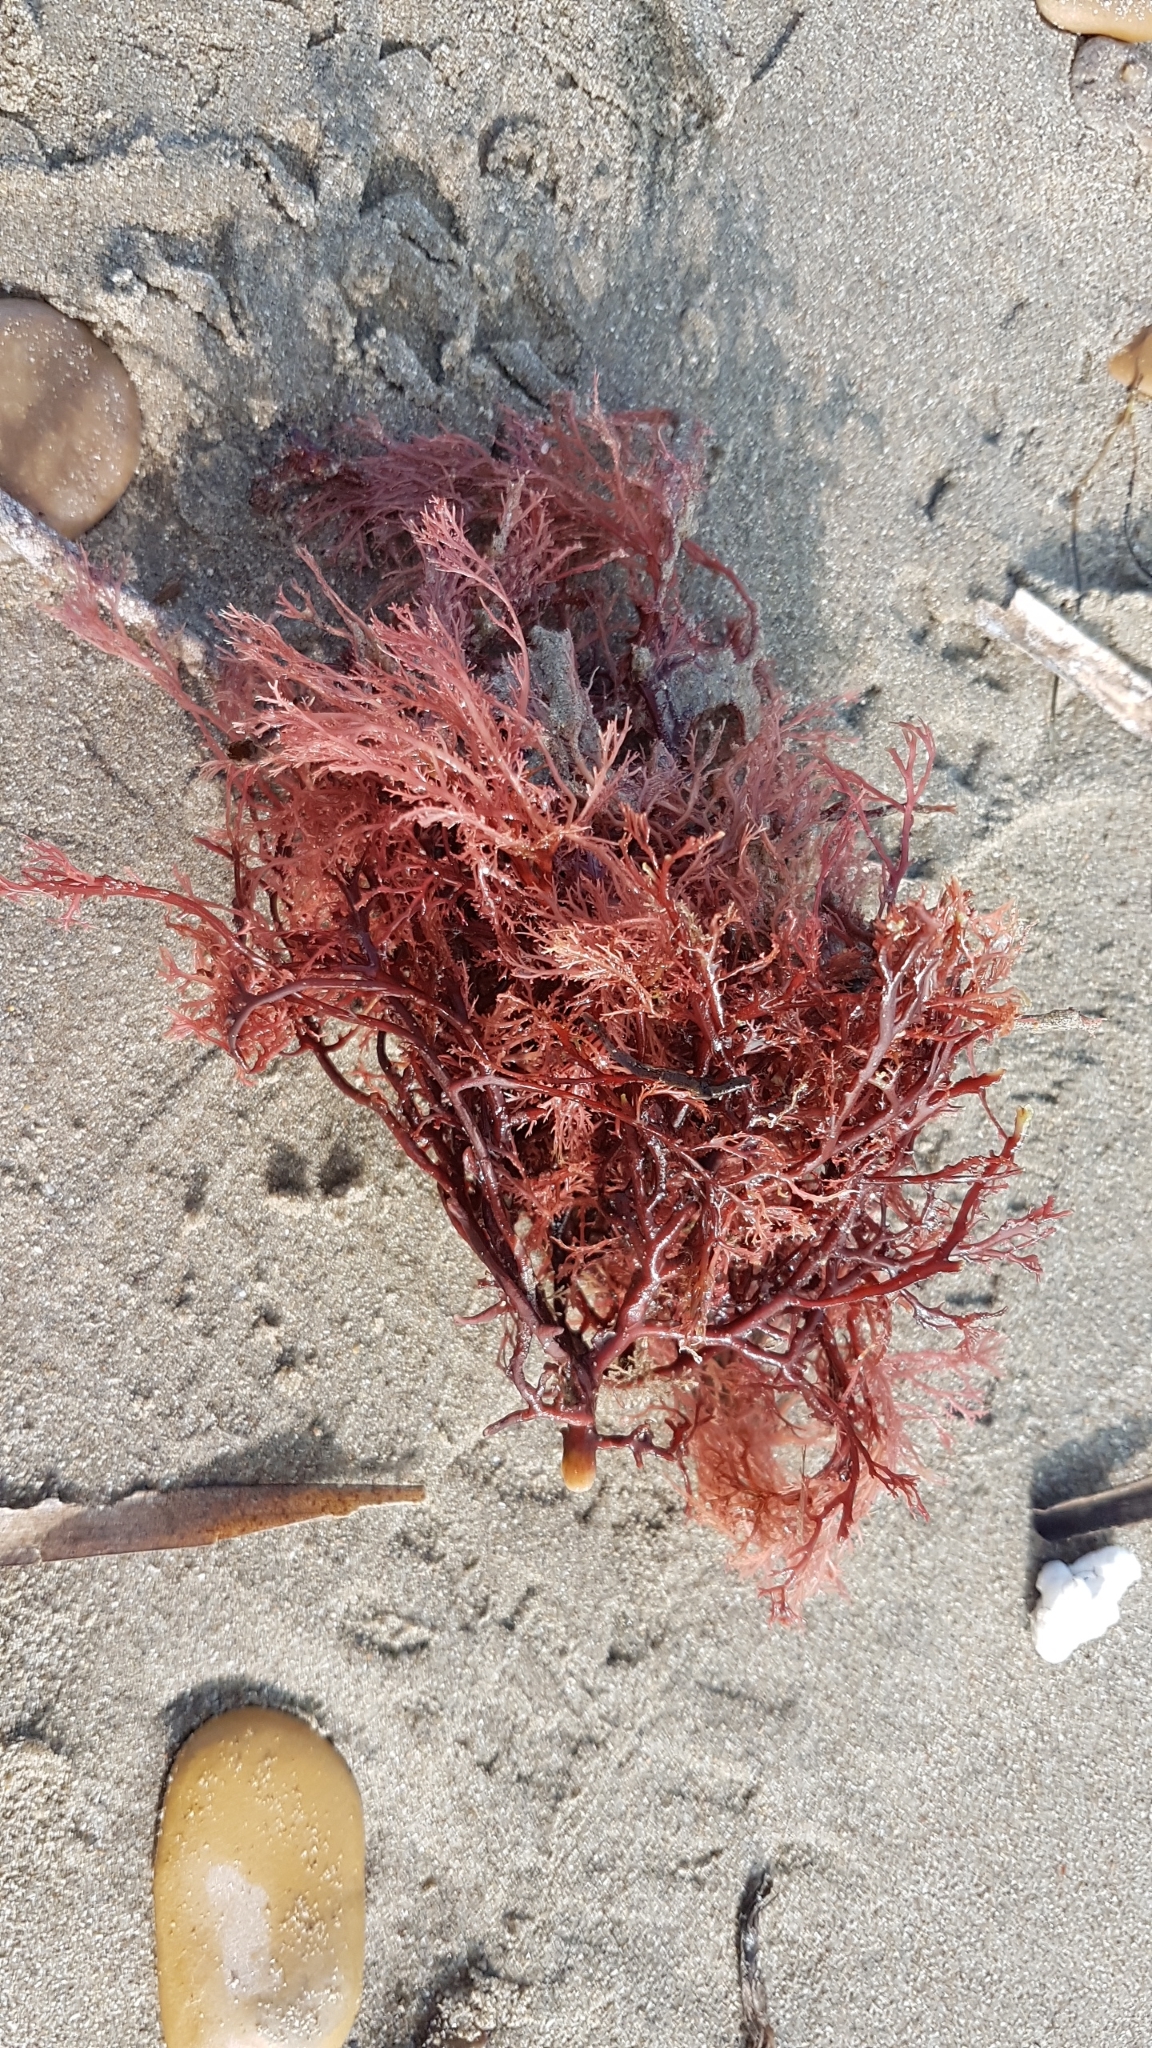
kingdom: Plantae
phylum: Rhodophyta
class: Florideophyceae
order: Gigartinales
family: Sphaerococcaceae
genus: Sphaerococcus
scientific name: Sphaerococcus coronopifolius
